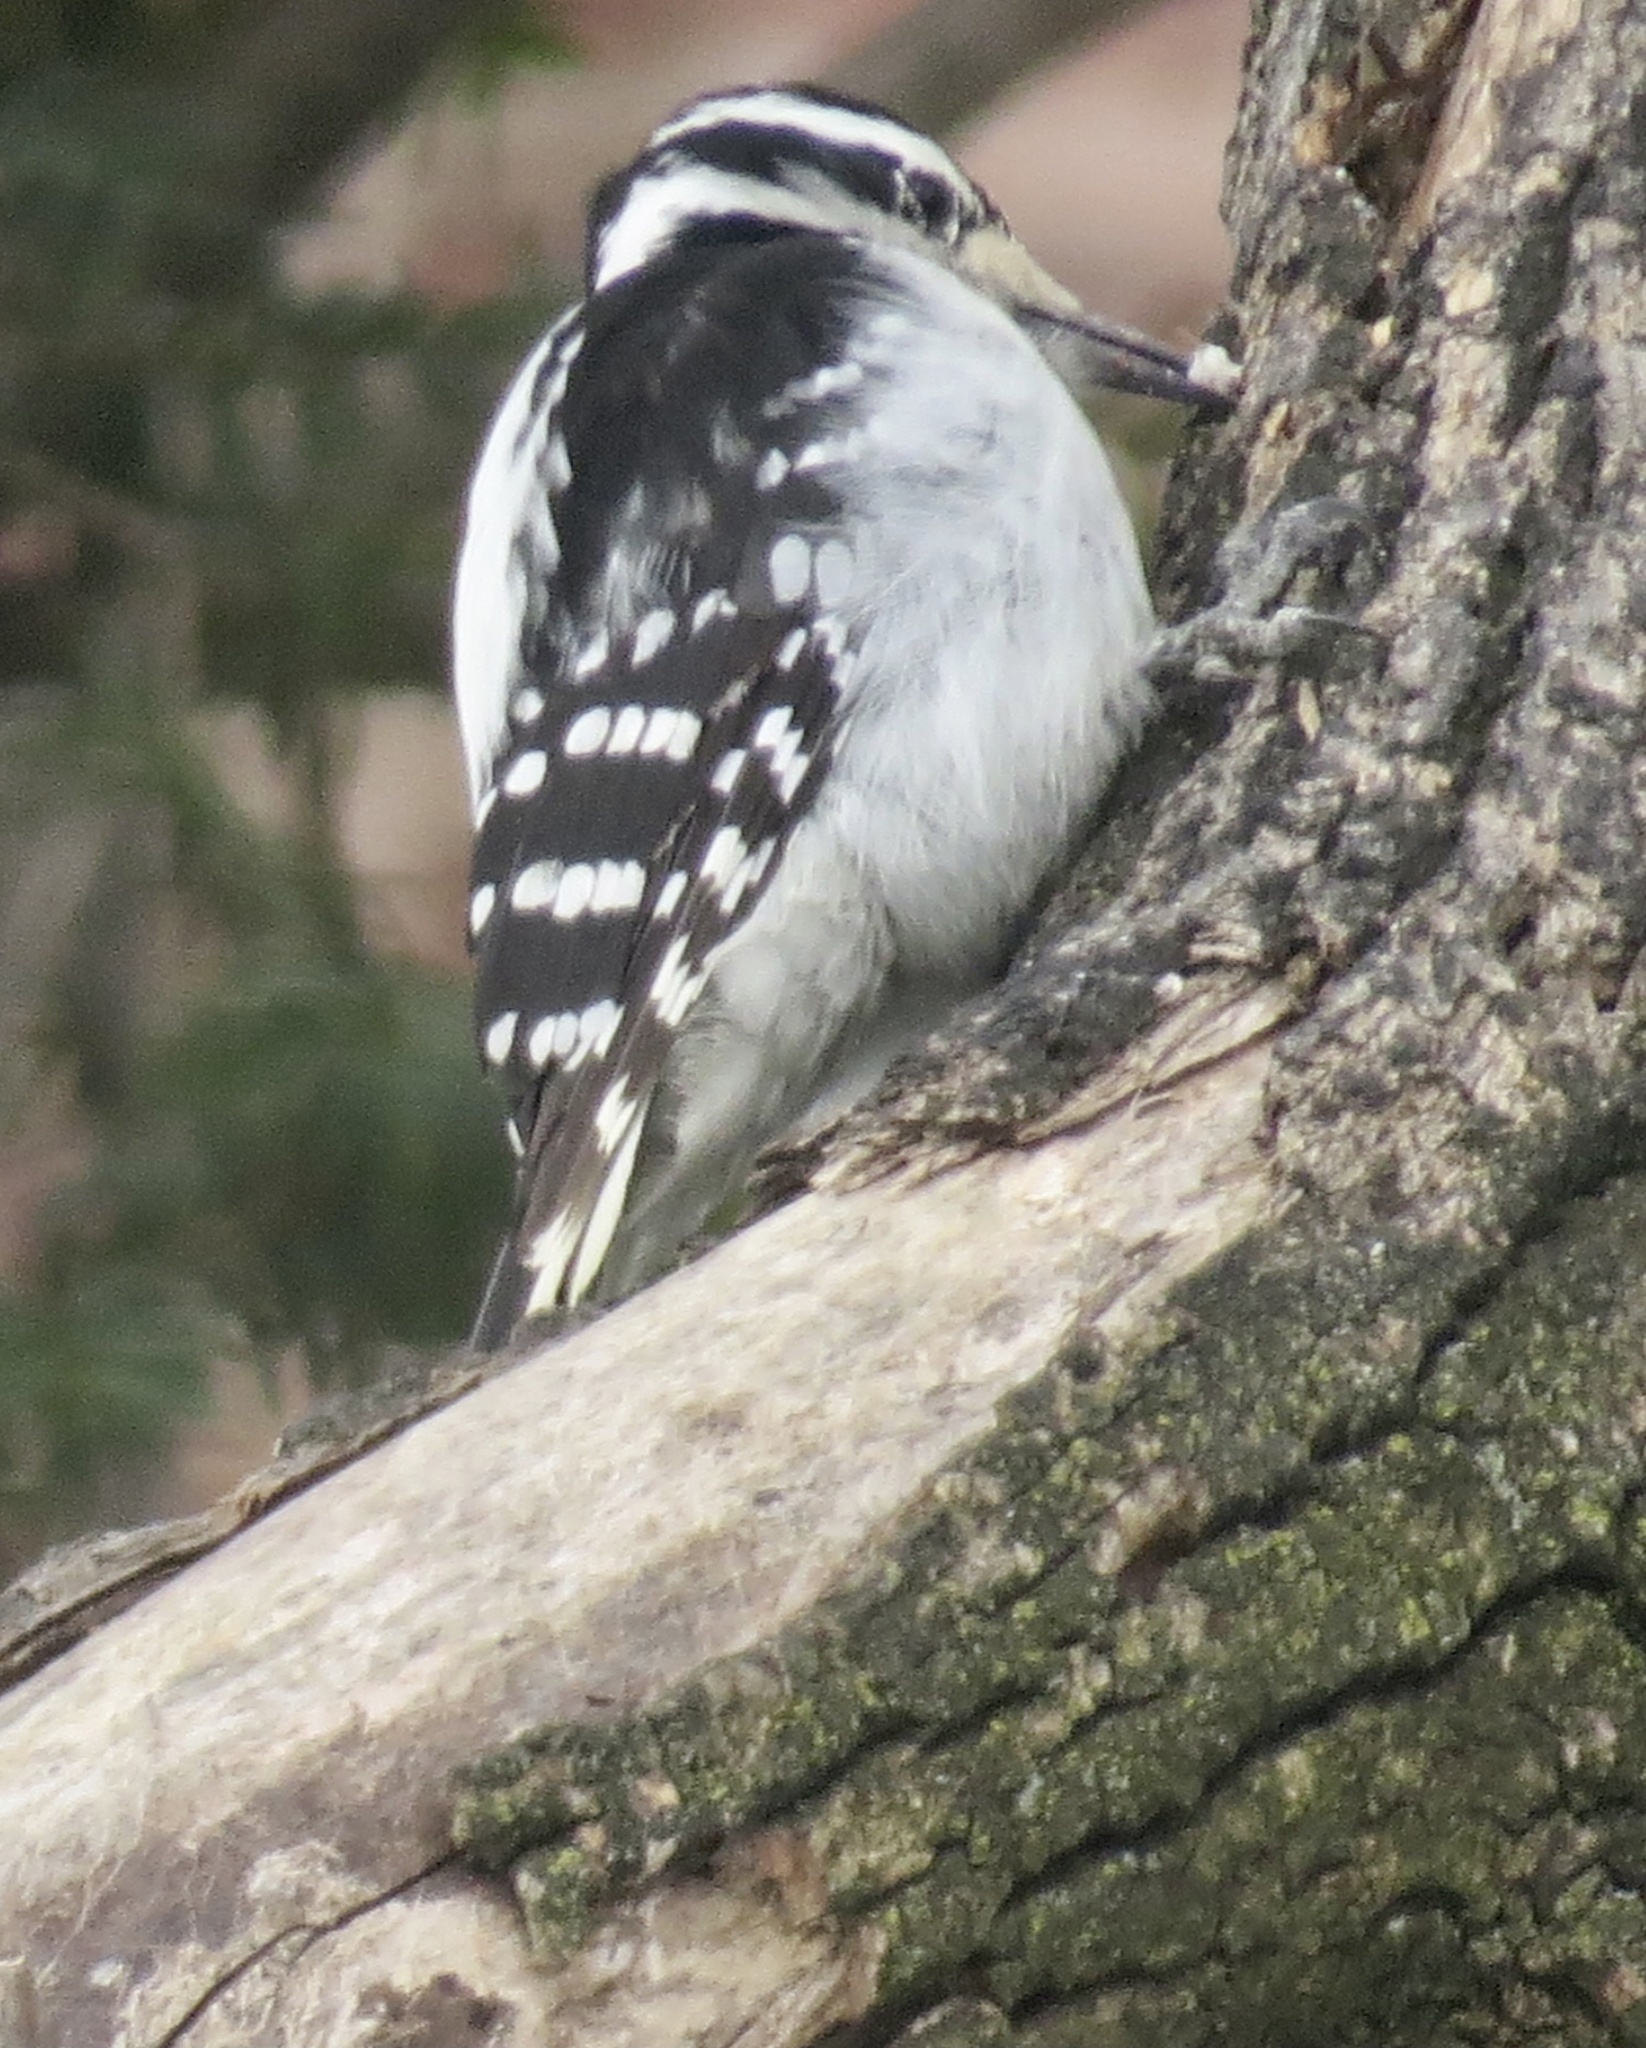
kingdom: Animalia
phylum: Chordata
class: Aves
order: Piciformes
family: Picidae
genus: Leuconotopicus
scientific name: Leuconotopicus villosus
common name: Hairy woodpecker
